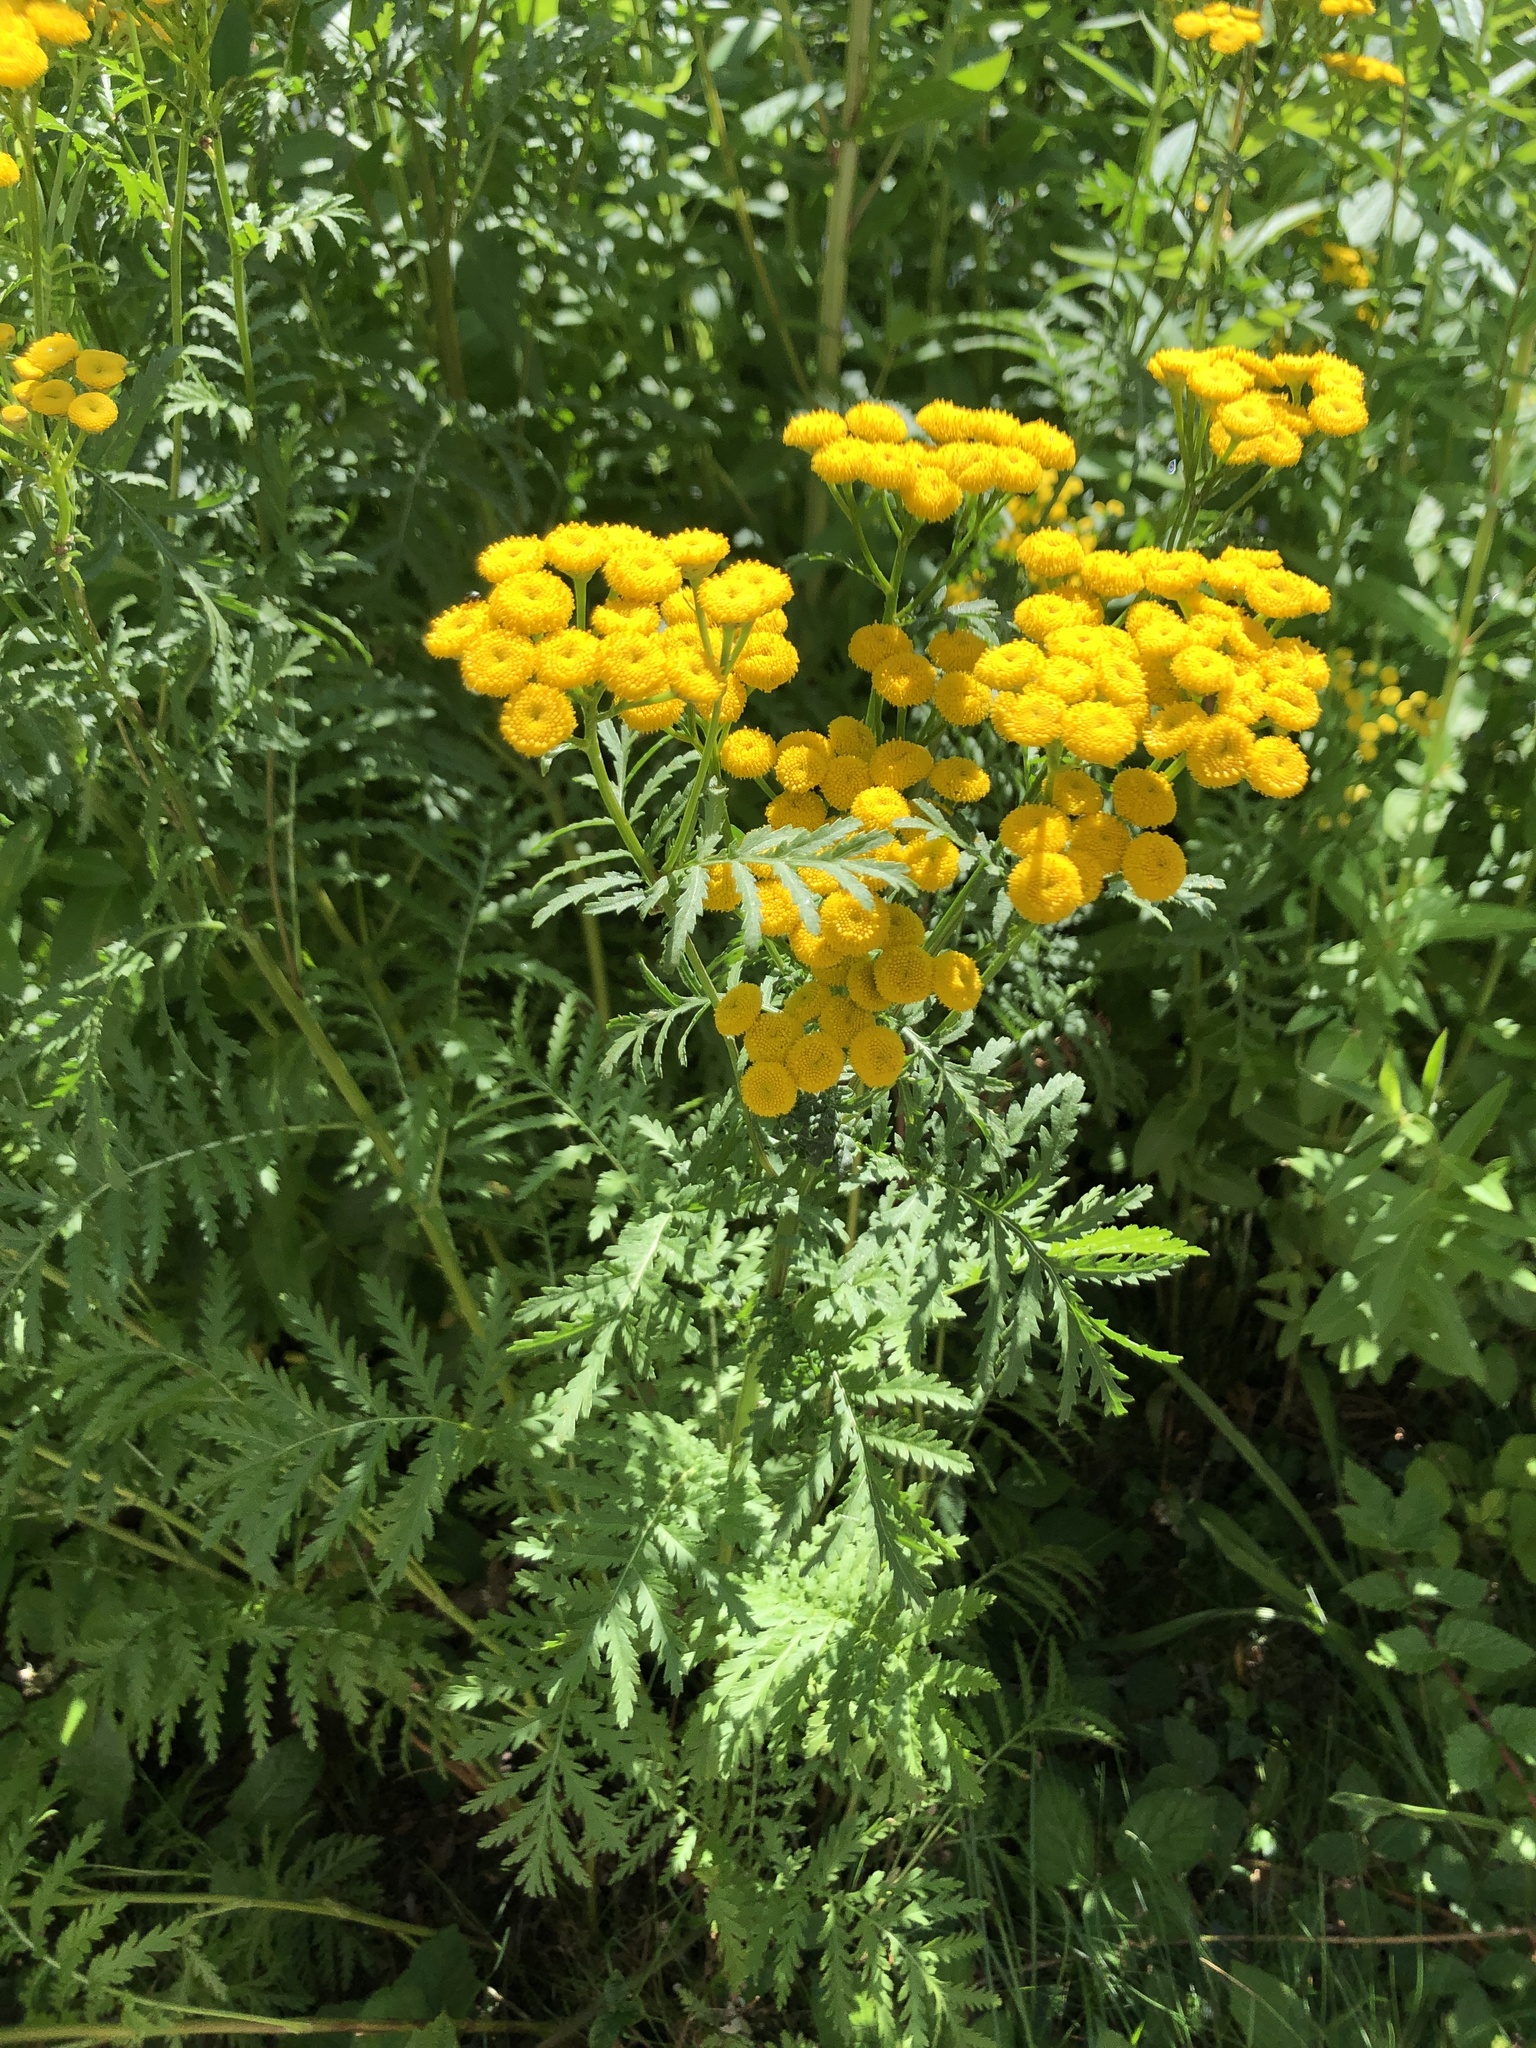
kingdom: Plantae
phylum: Tracheophyta
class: Magnoliopsida
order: Asterales
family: Asteraceae
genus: Tanacetum
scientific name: Tanacetum vulgare
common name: Common tansy
